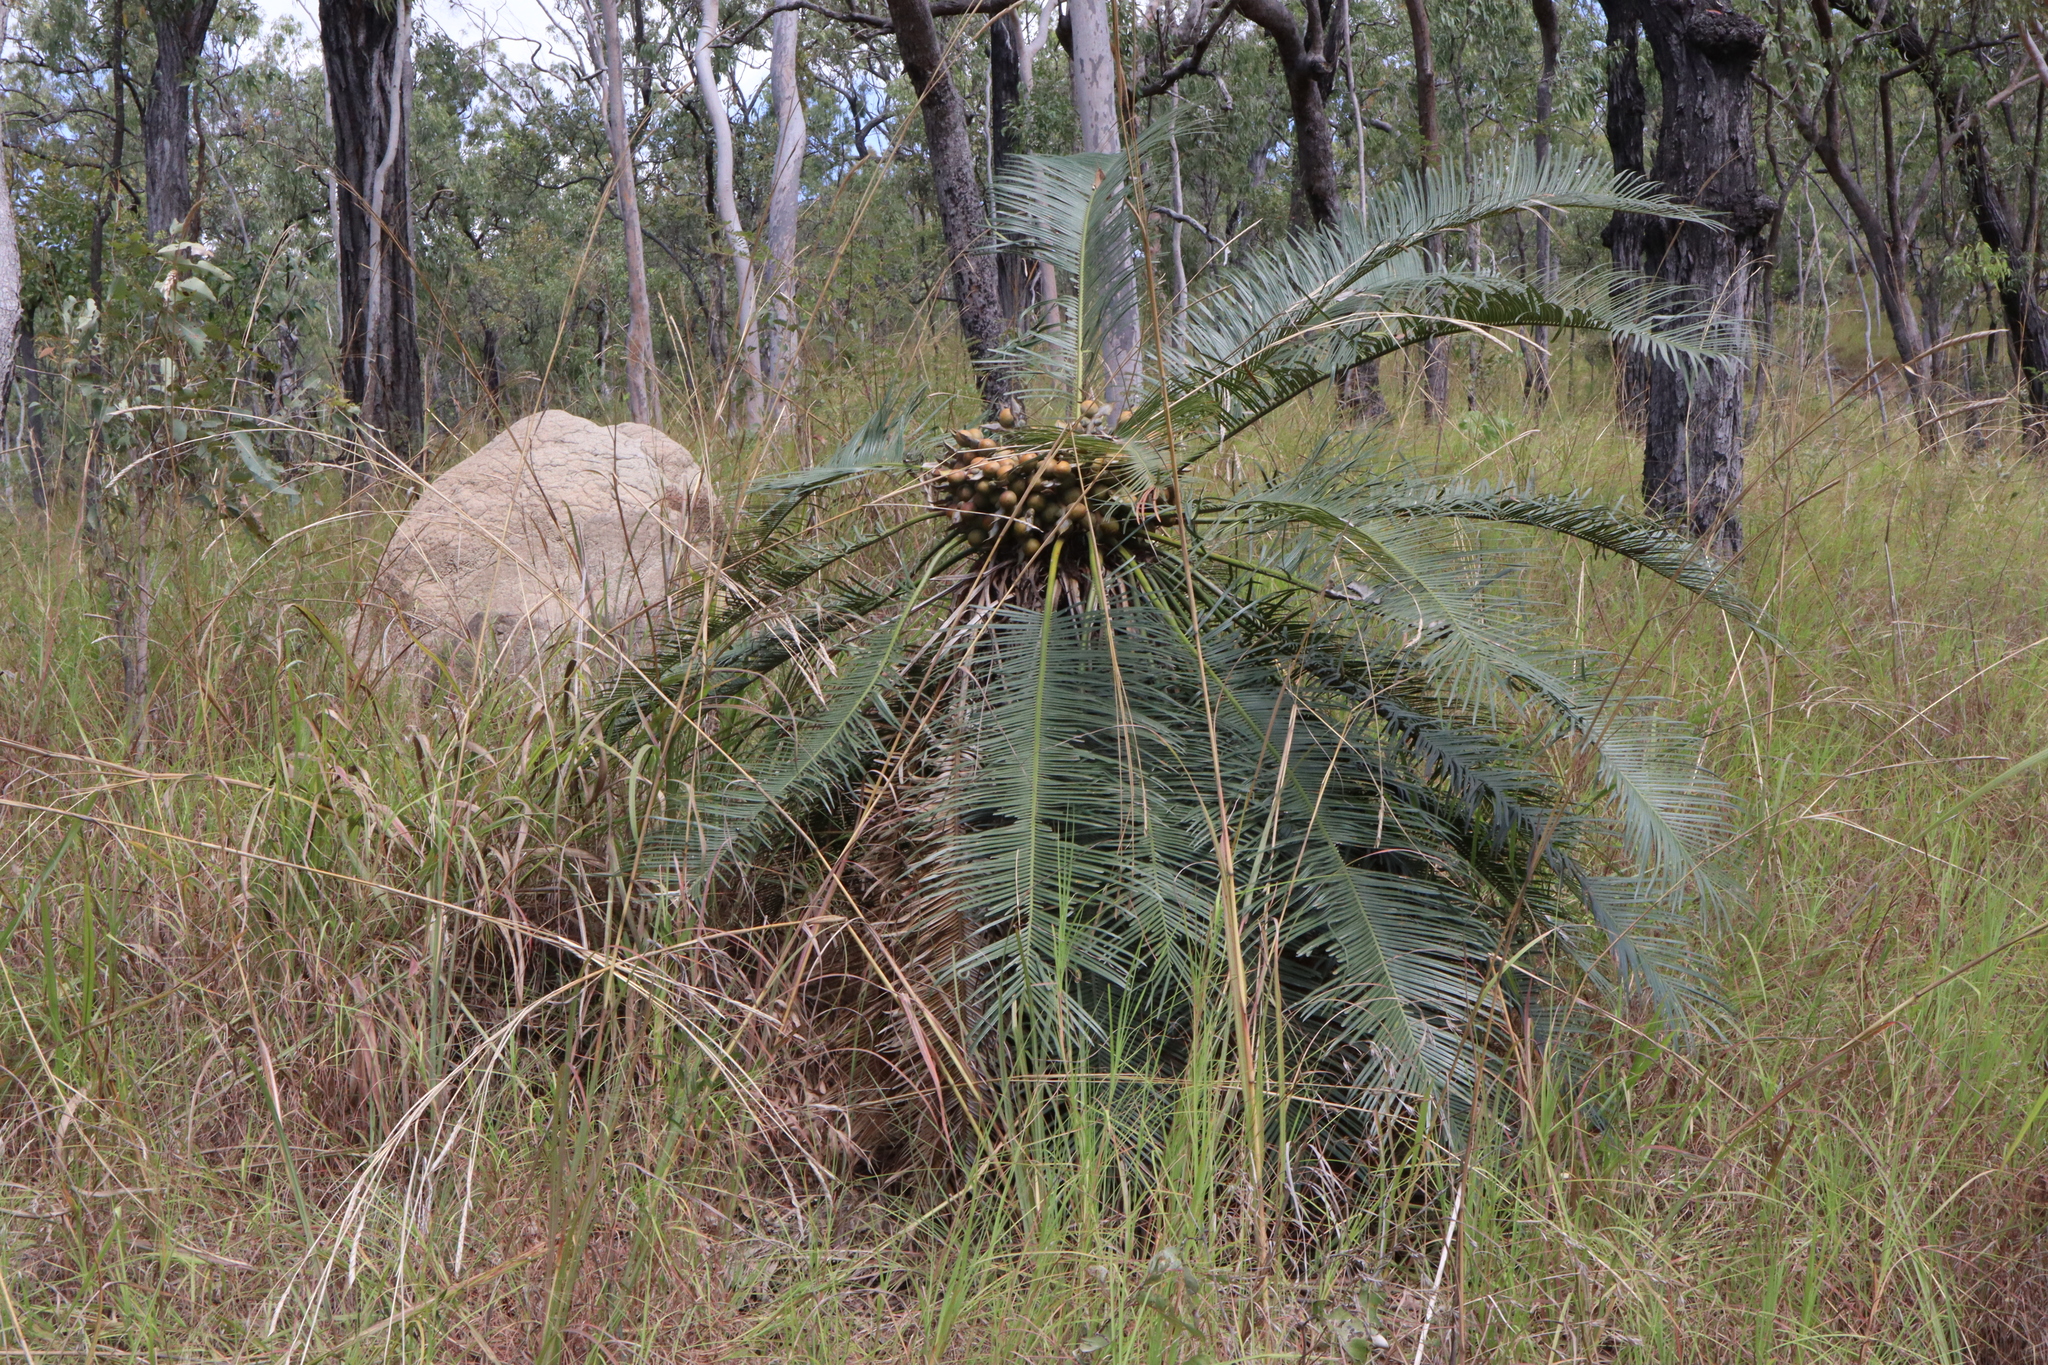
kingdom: Plantae
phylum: Tracheophyta
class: Cycadopsida
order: Cycadales
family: Cycadaceae
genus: Cycas
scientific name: Cycas media
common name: Queensland cycas
